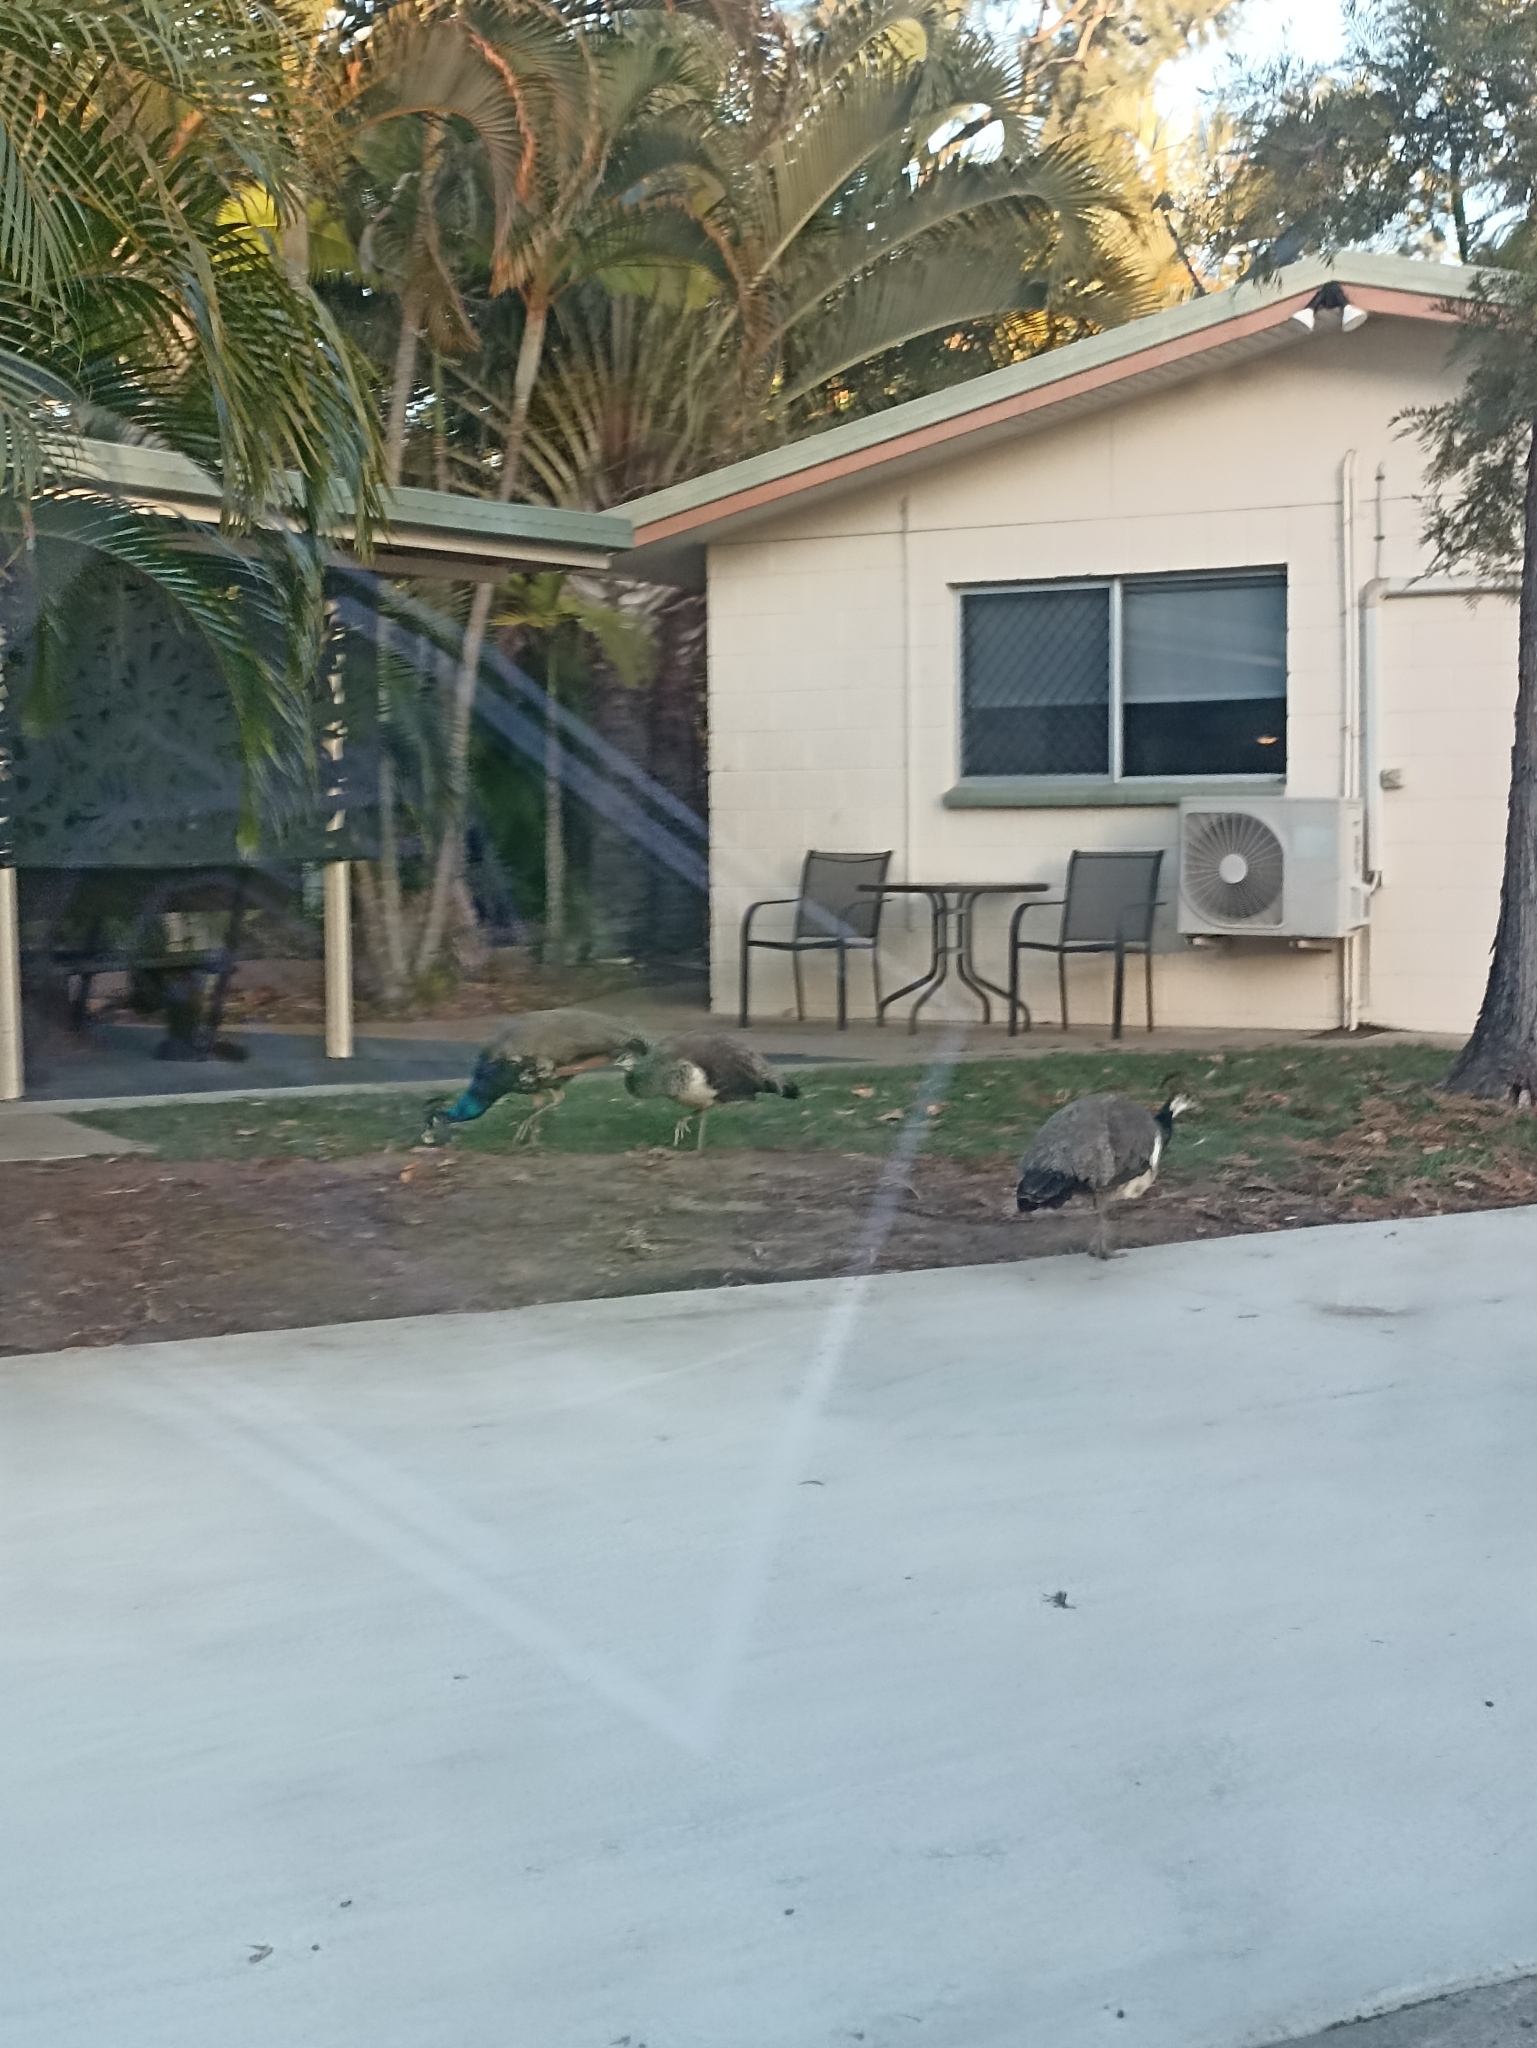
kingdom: Animalia
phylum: Chordata
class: Aves
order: Galliformes
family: Phasianidae
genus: Pavo
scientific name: Pavo cristatus
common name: Indian peafowl
